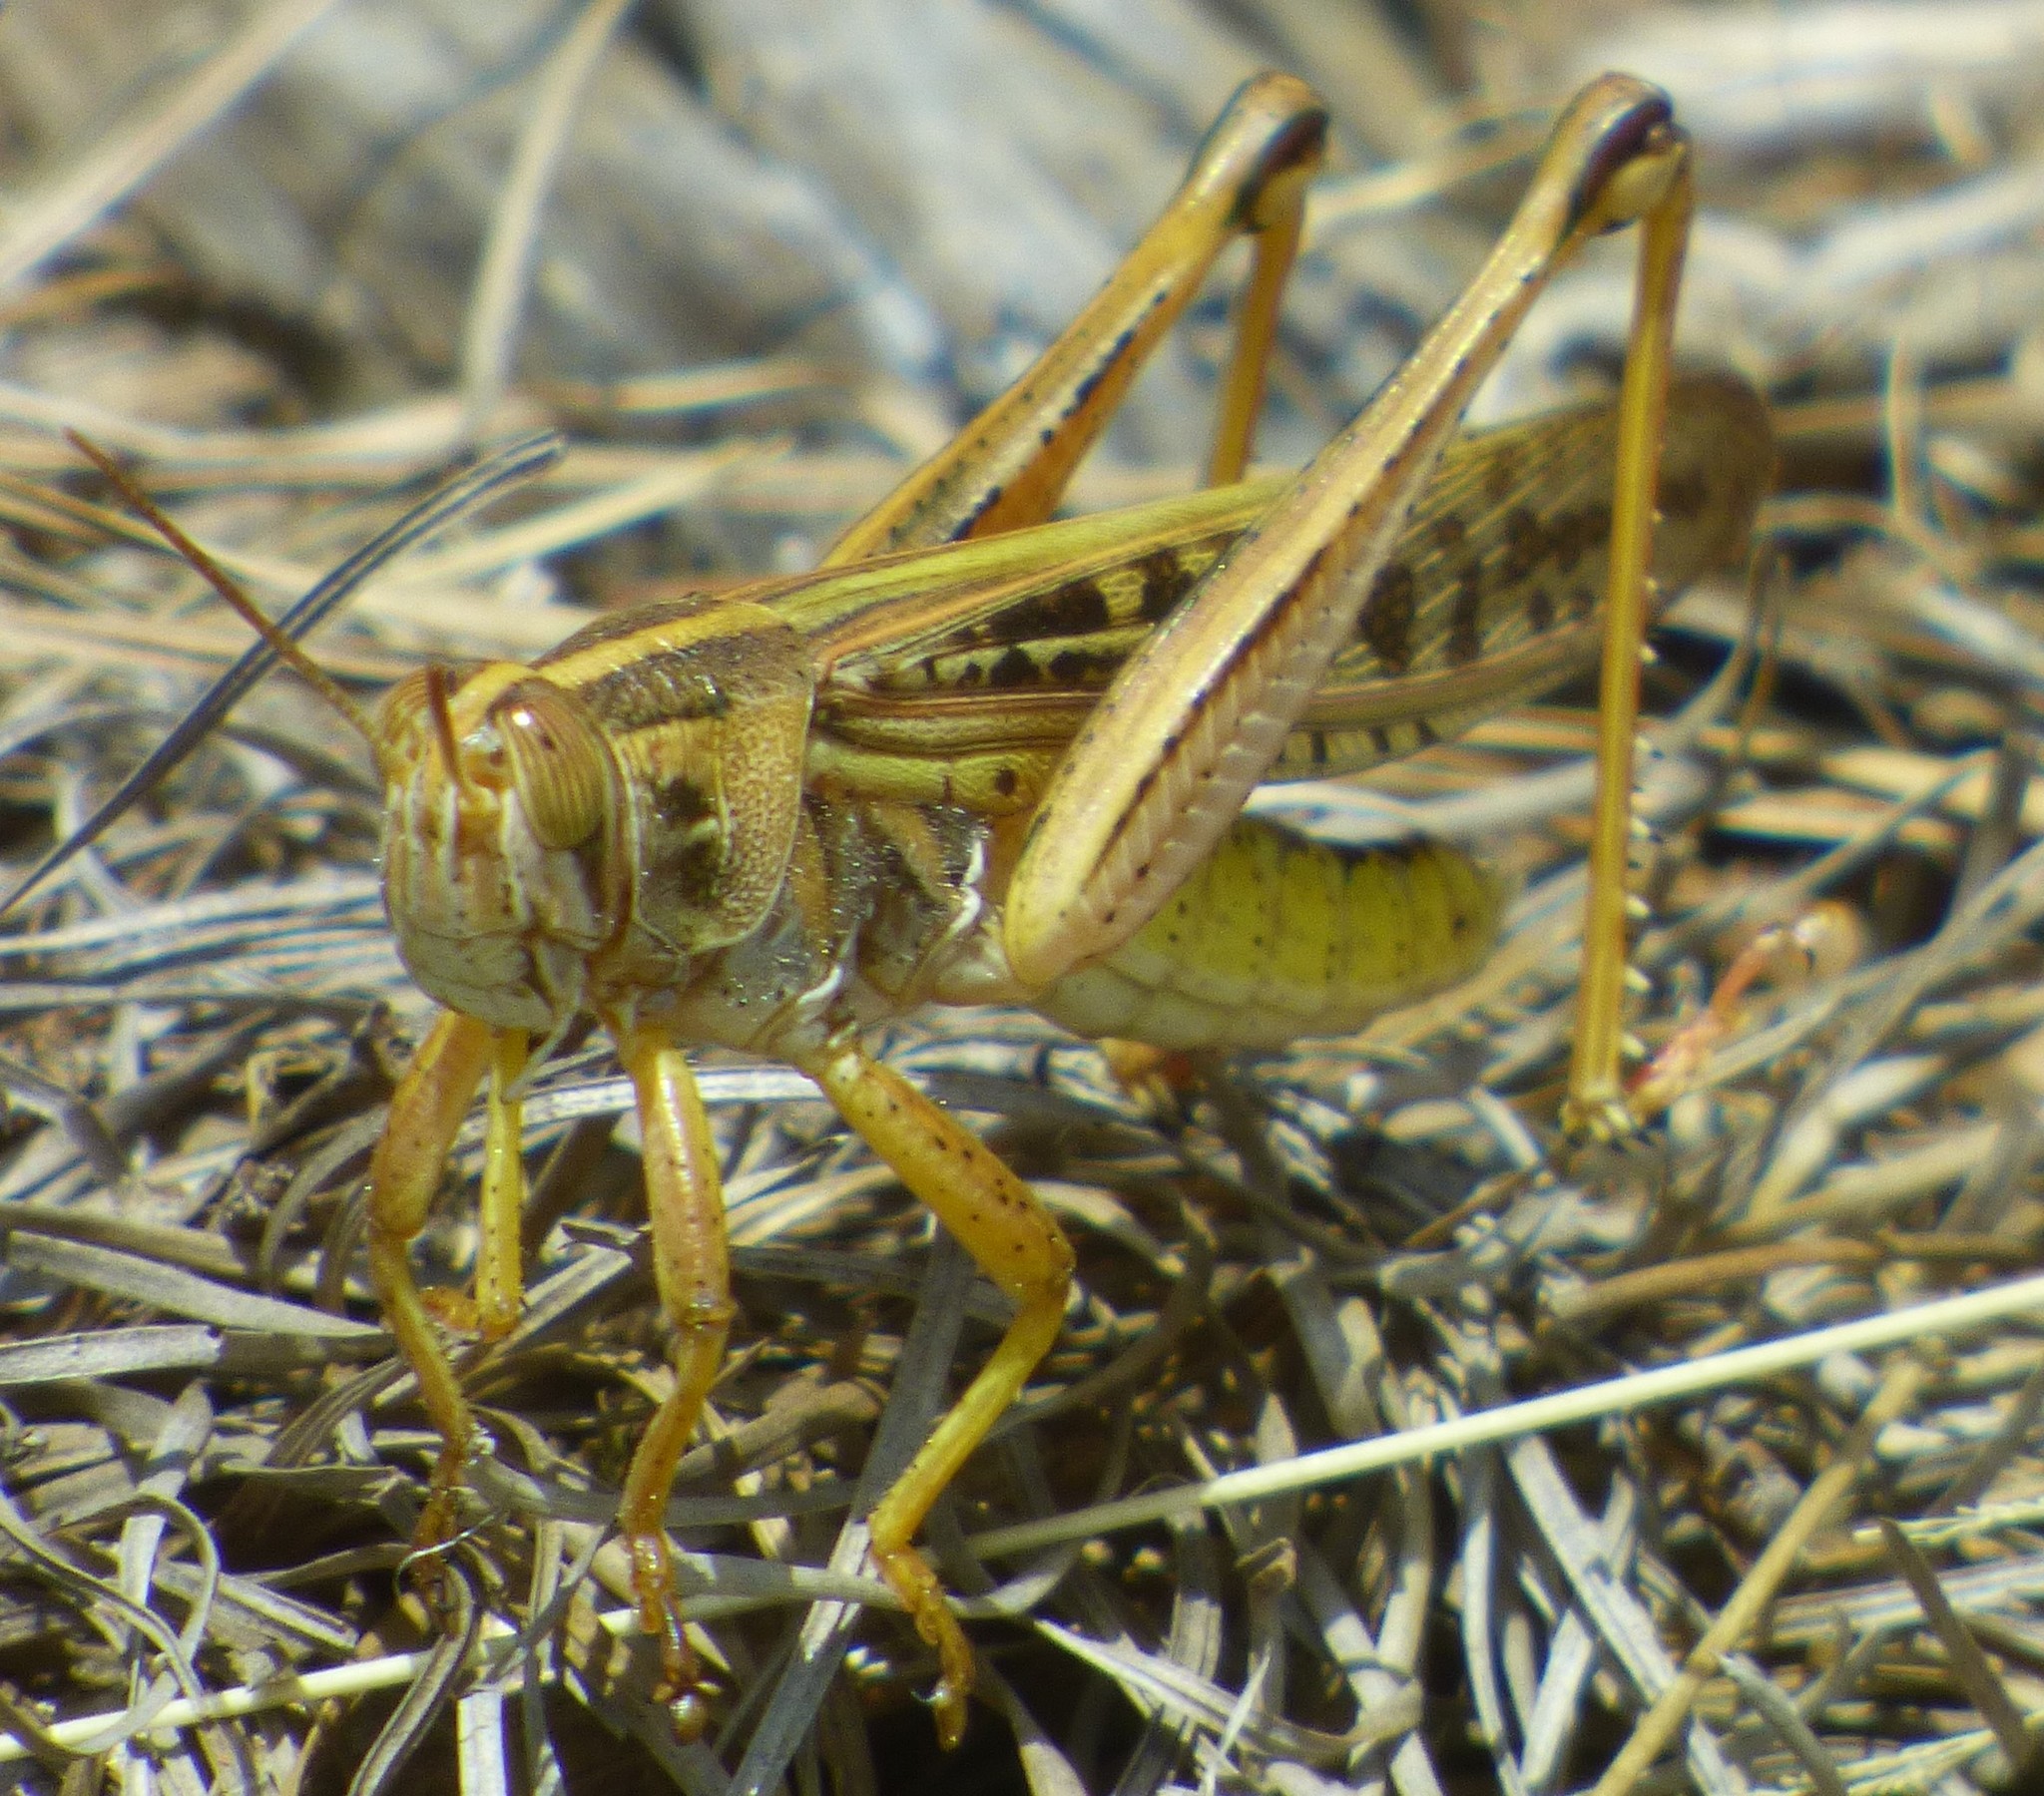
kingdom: Animalia
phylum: Arthropoda
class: Insecta
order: Orthoptera
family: Acrididae
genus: Schistocerca
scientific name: Schistocerca americana
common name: American bird locust
